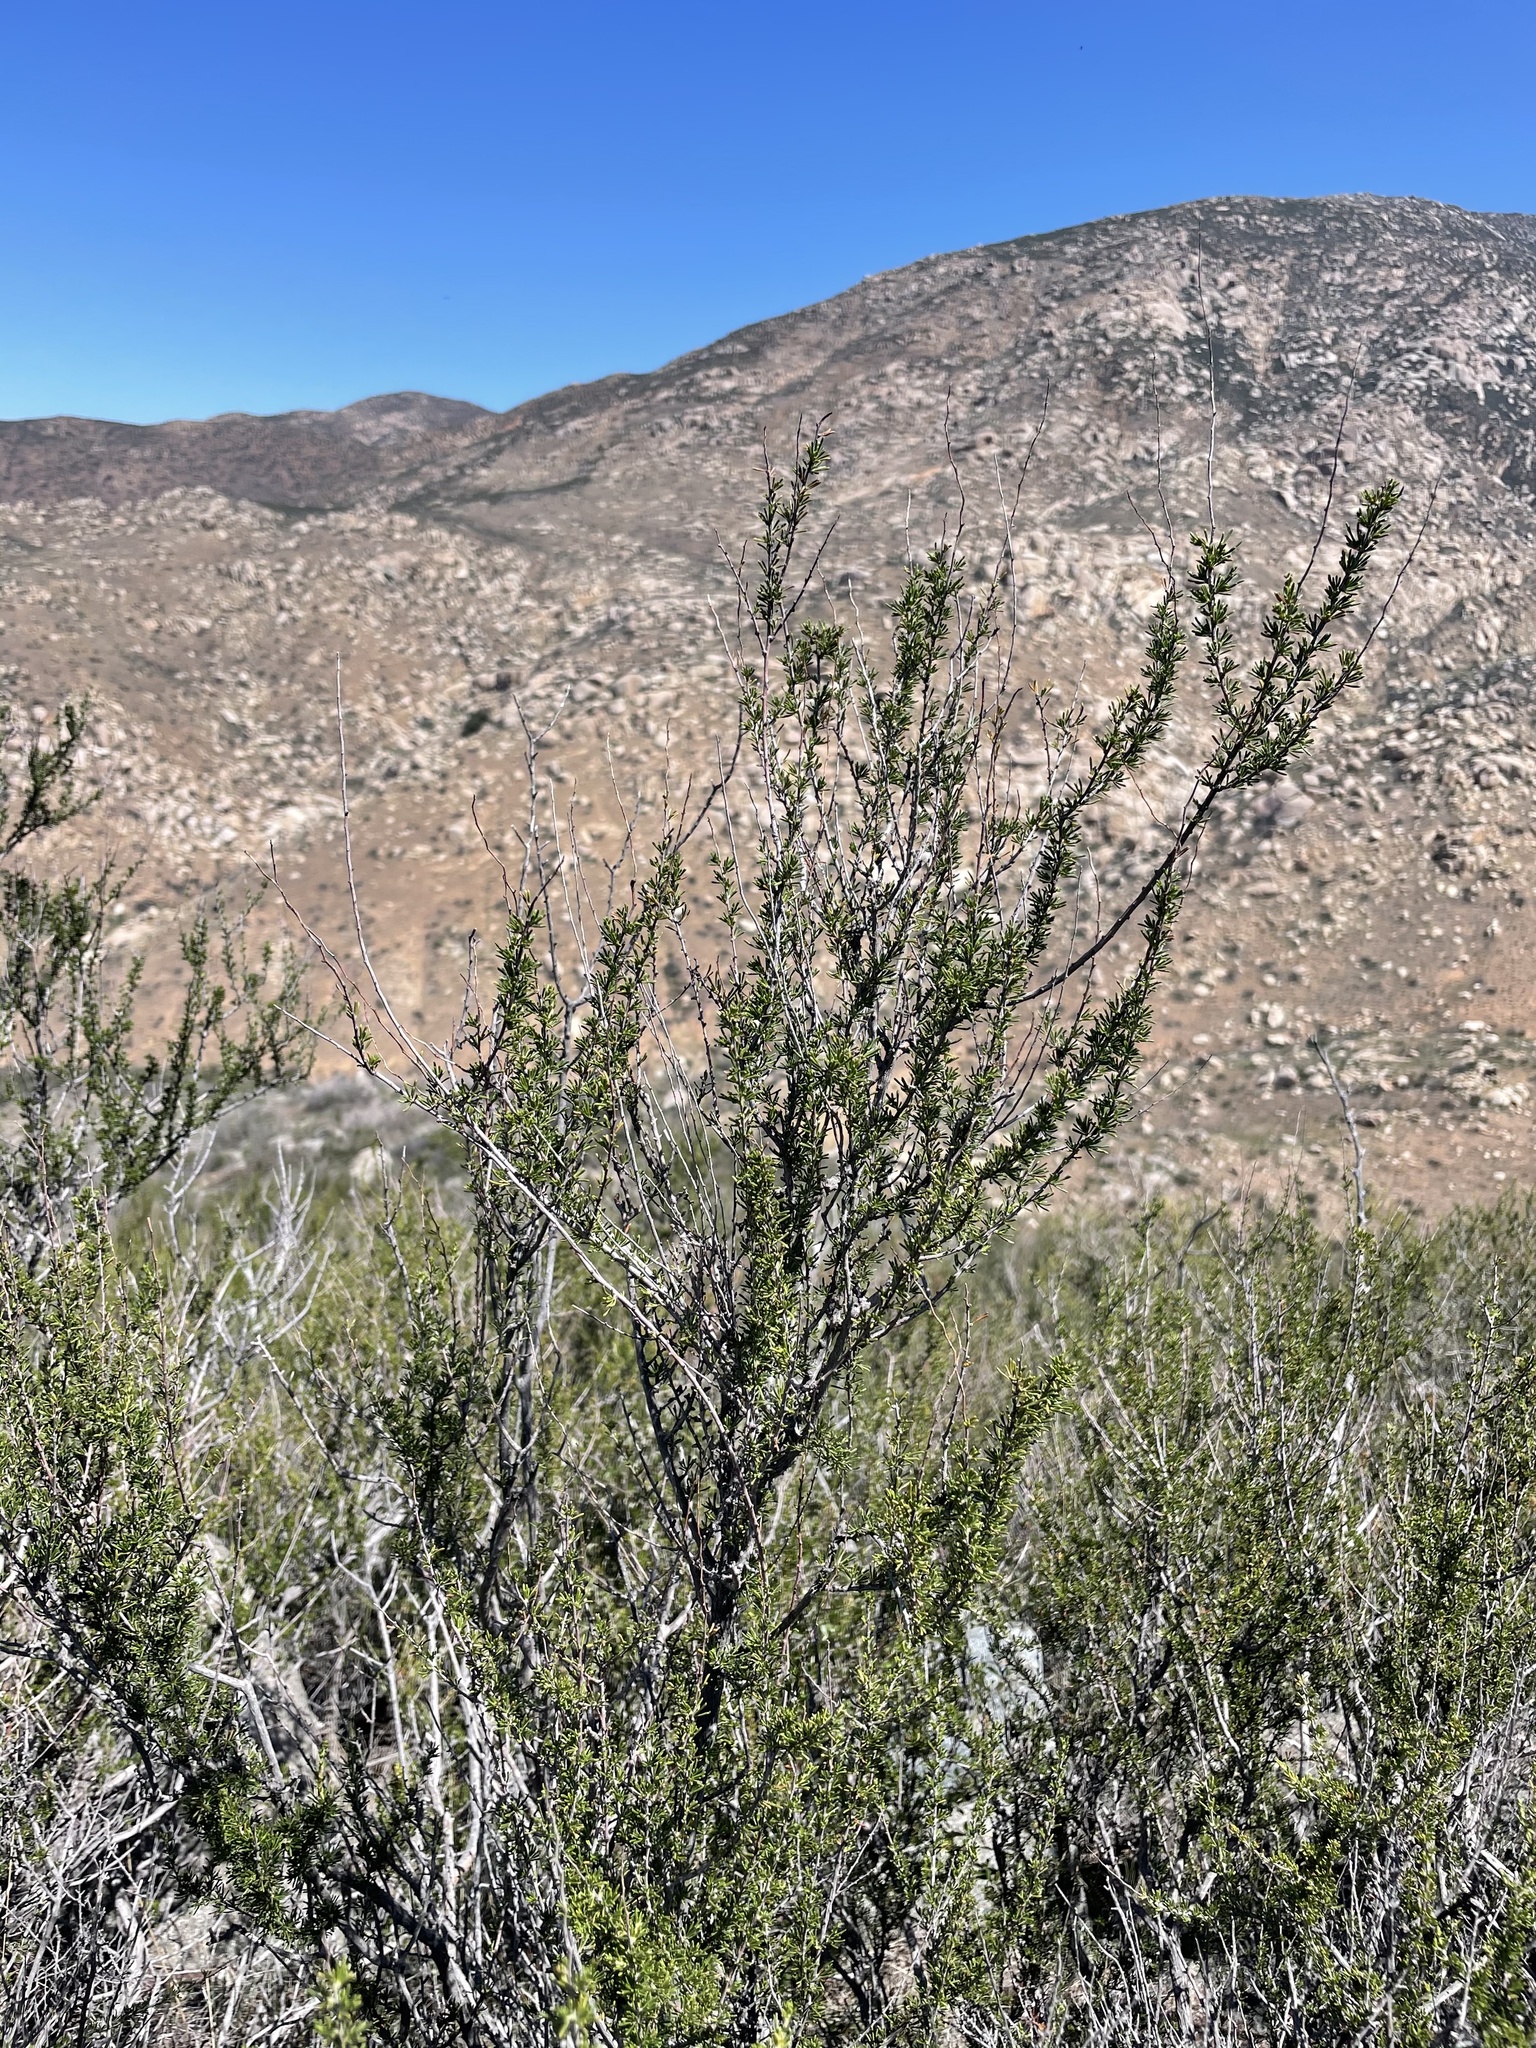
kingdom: Plantae
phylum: Tracheophyta
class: Magnoliopsida
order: Rosales
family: Rosaceae
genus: Adenostoma
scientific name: Adenostoma fasciculatum
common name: Chamise
